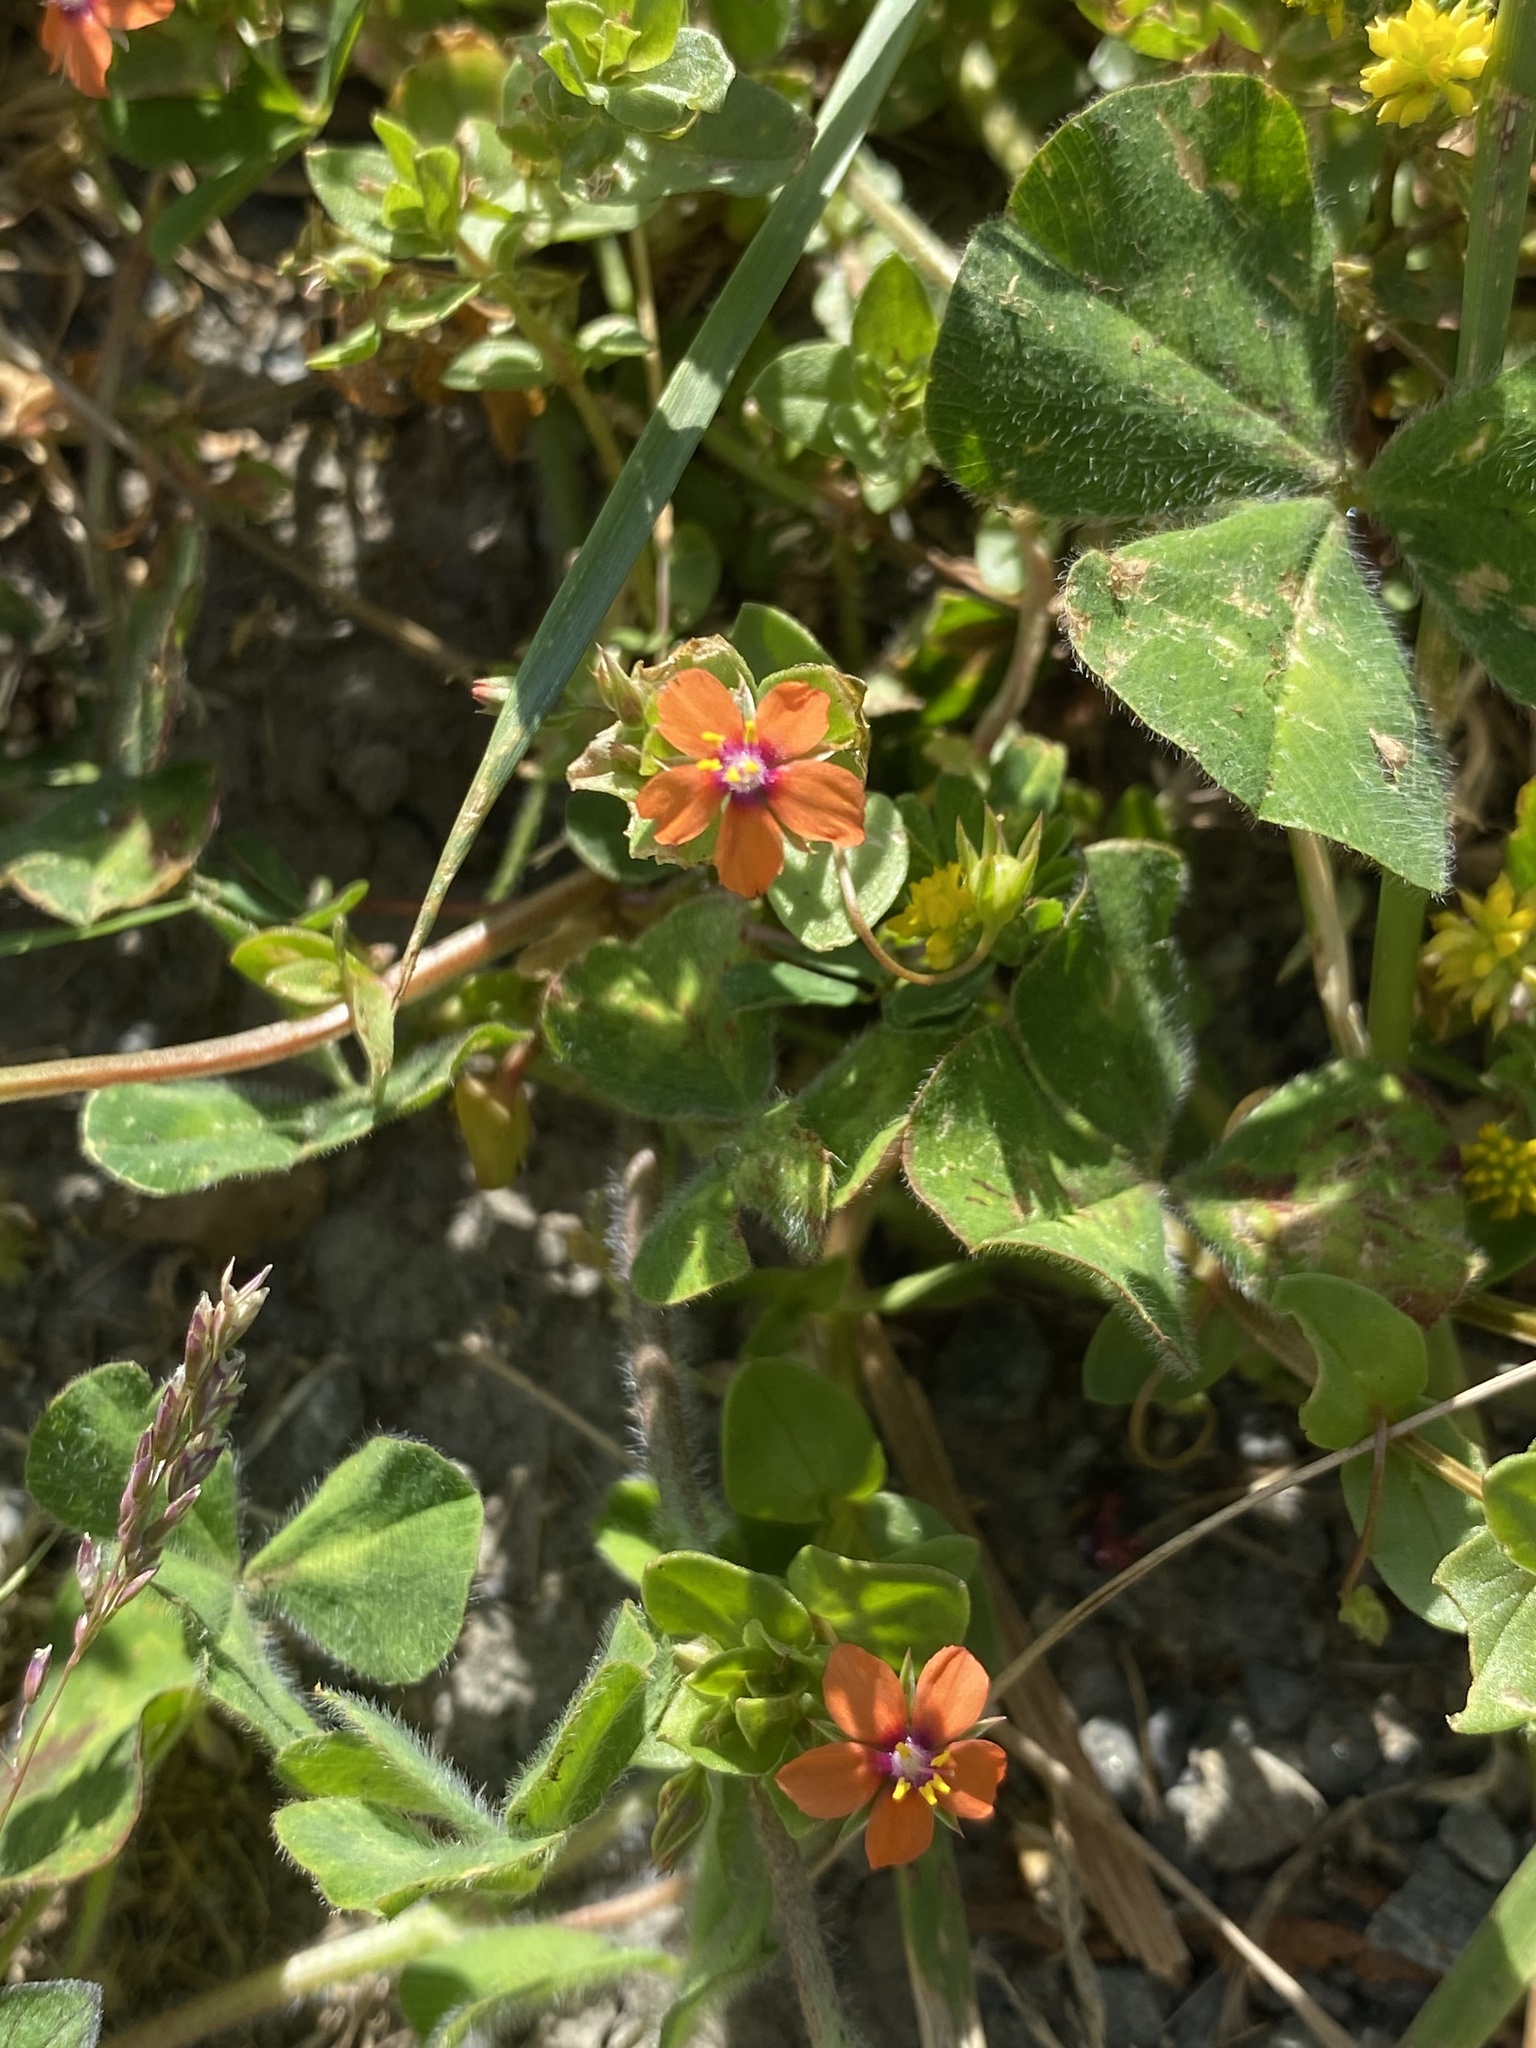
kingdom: Plantae
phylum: Tracheophyta
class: Magnoliopsida
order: Ericales
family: Primulaceae
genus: Lysimachia
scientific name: Lysimachia arvensis
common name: Scarlet pimpernel
